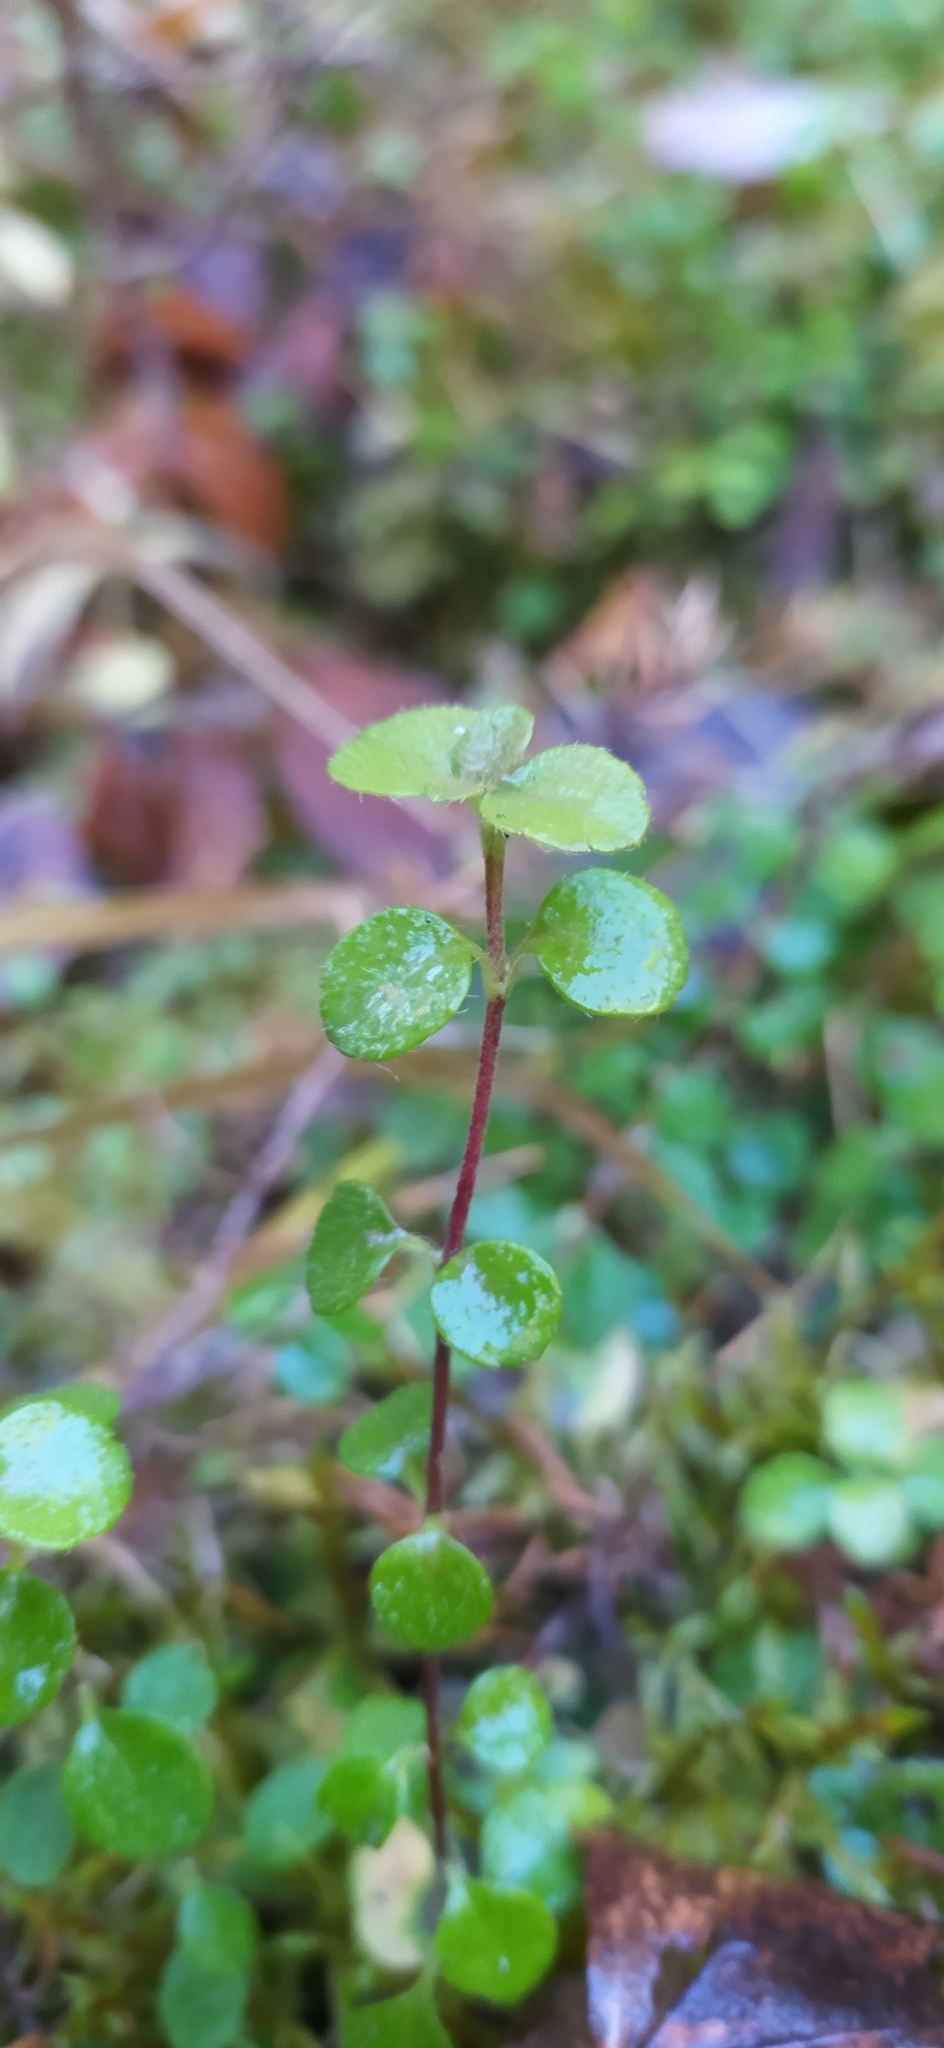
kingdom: Plantae
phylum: Tracheophyta
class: Magnoliopsida
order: Dipsacales
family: Caprifoliaceae
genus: Linnaea
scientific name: Linnaea borealis
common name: Twinflower
